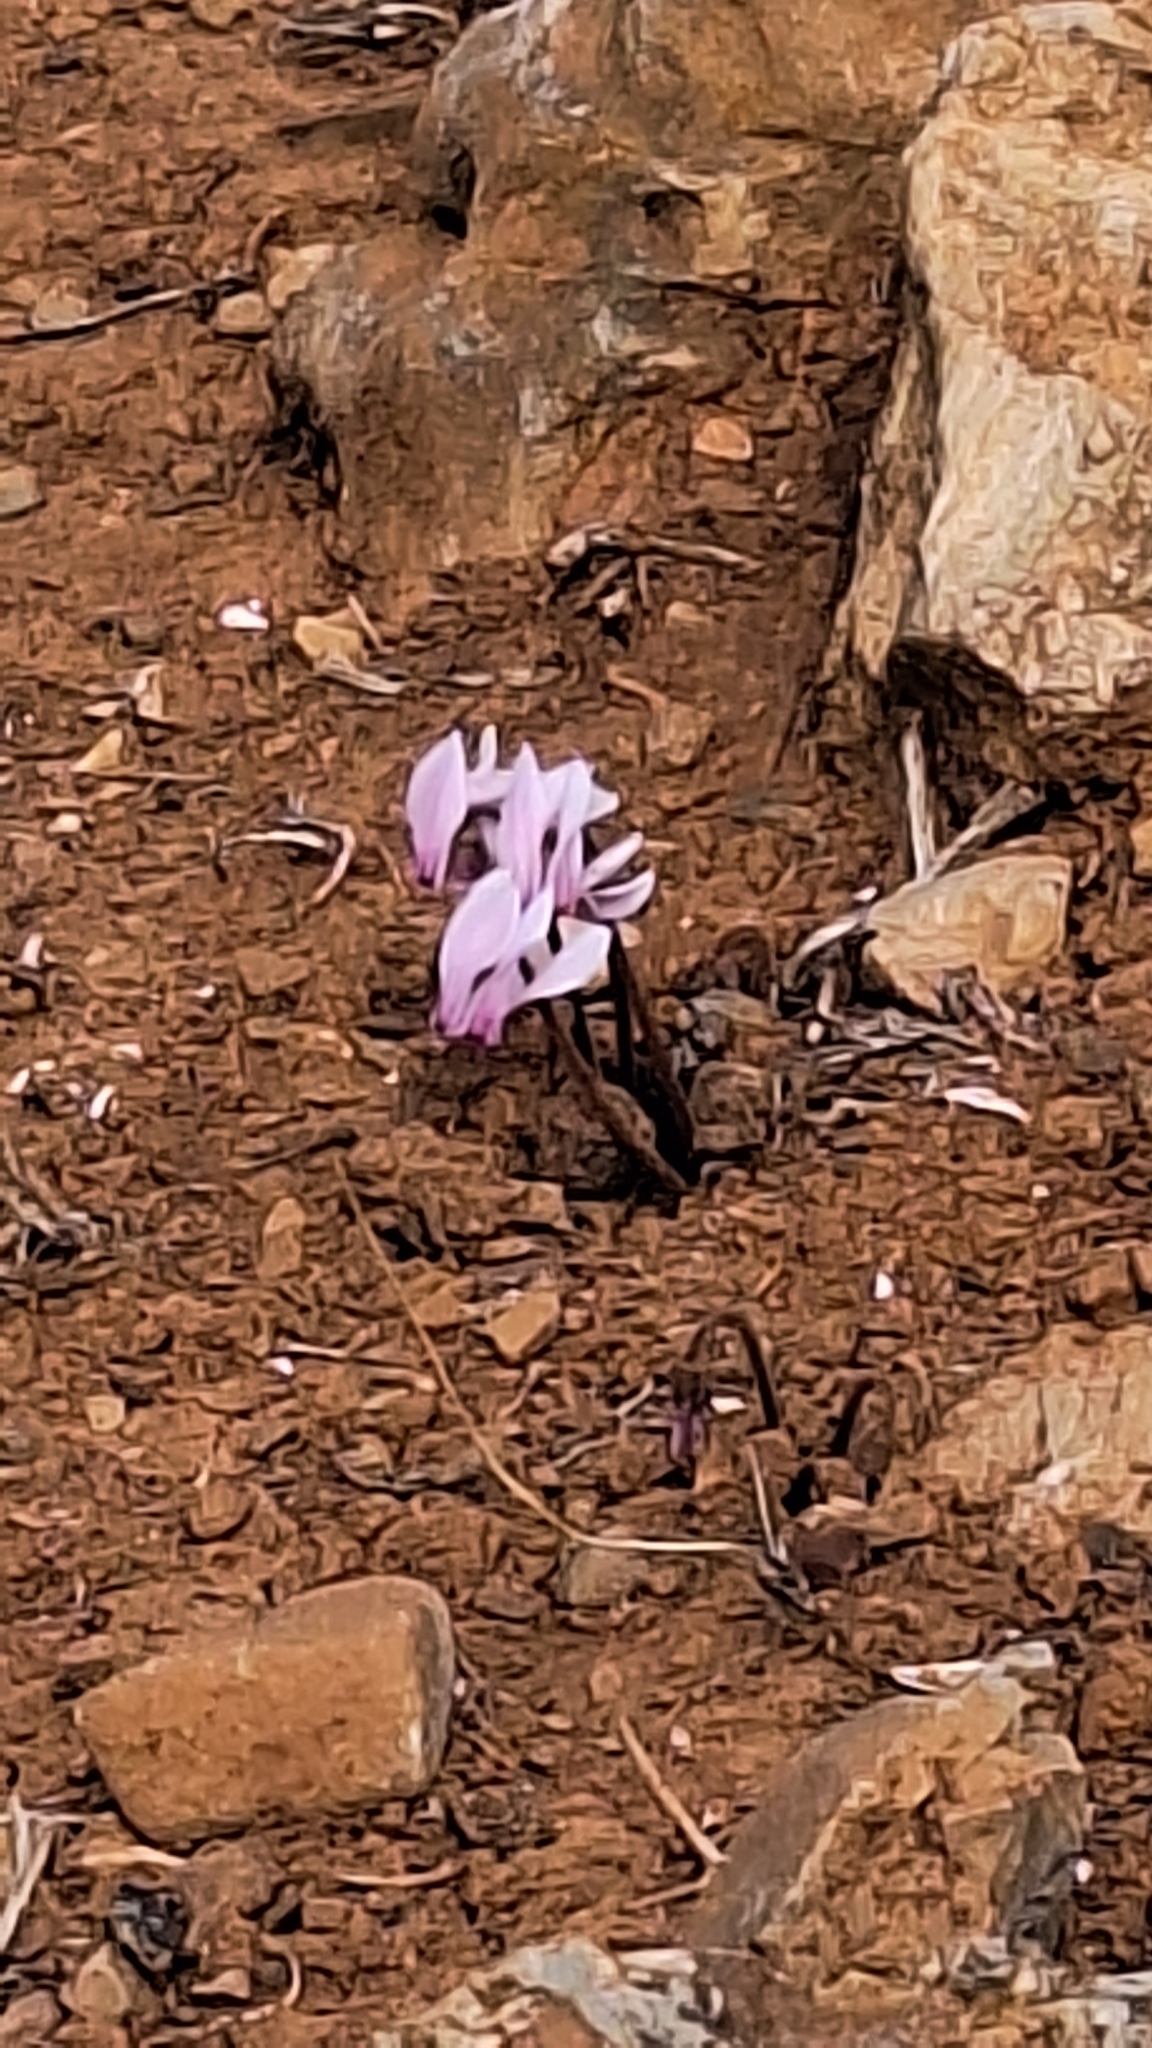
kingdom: Plantae
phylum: Tracheophyta
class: Magnoliopsida
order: Ericales
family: Primulaceae
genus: Cyclamen
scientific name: Cyclamen graecum
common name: Greek cyclamen
